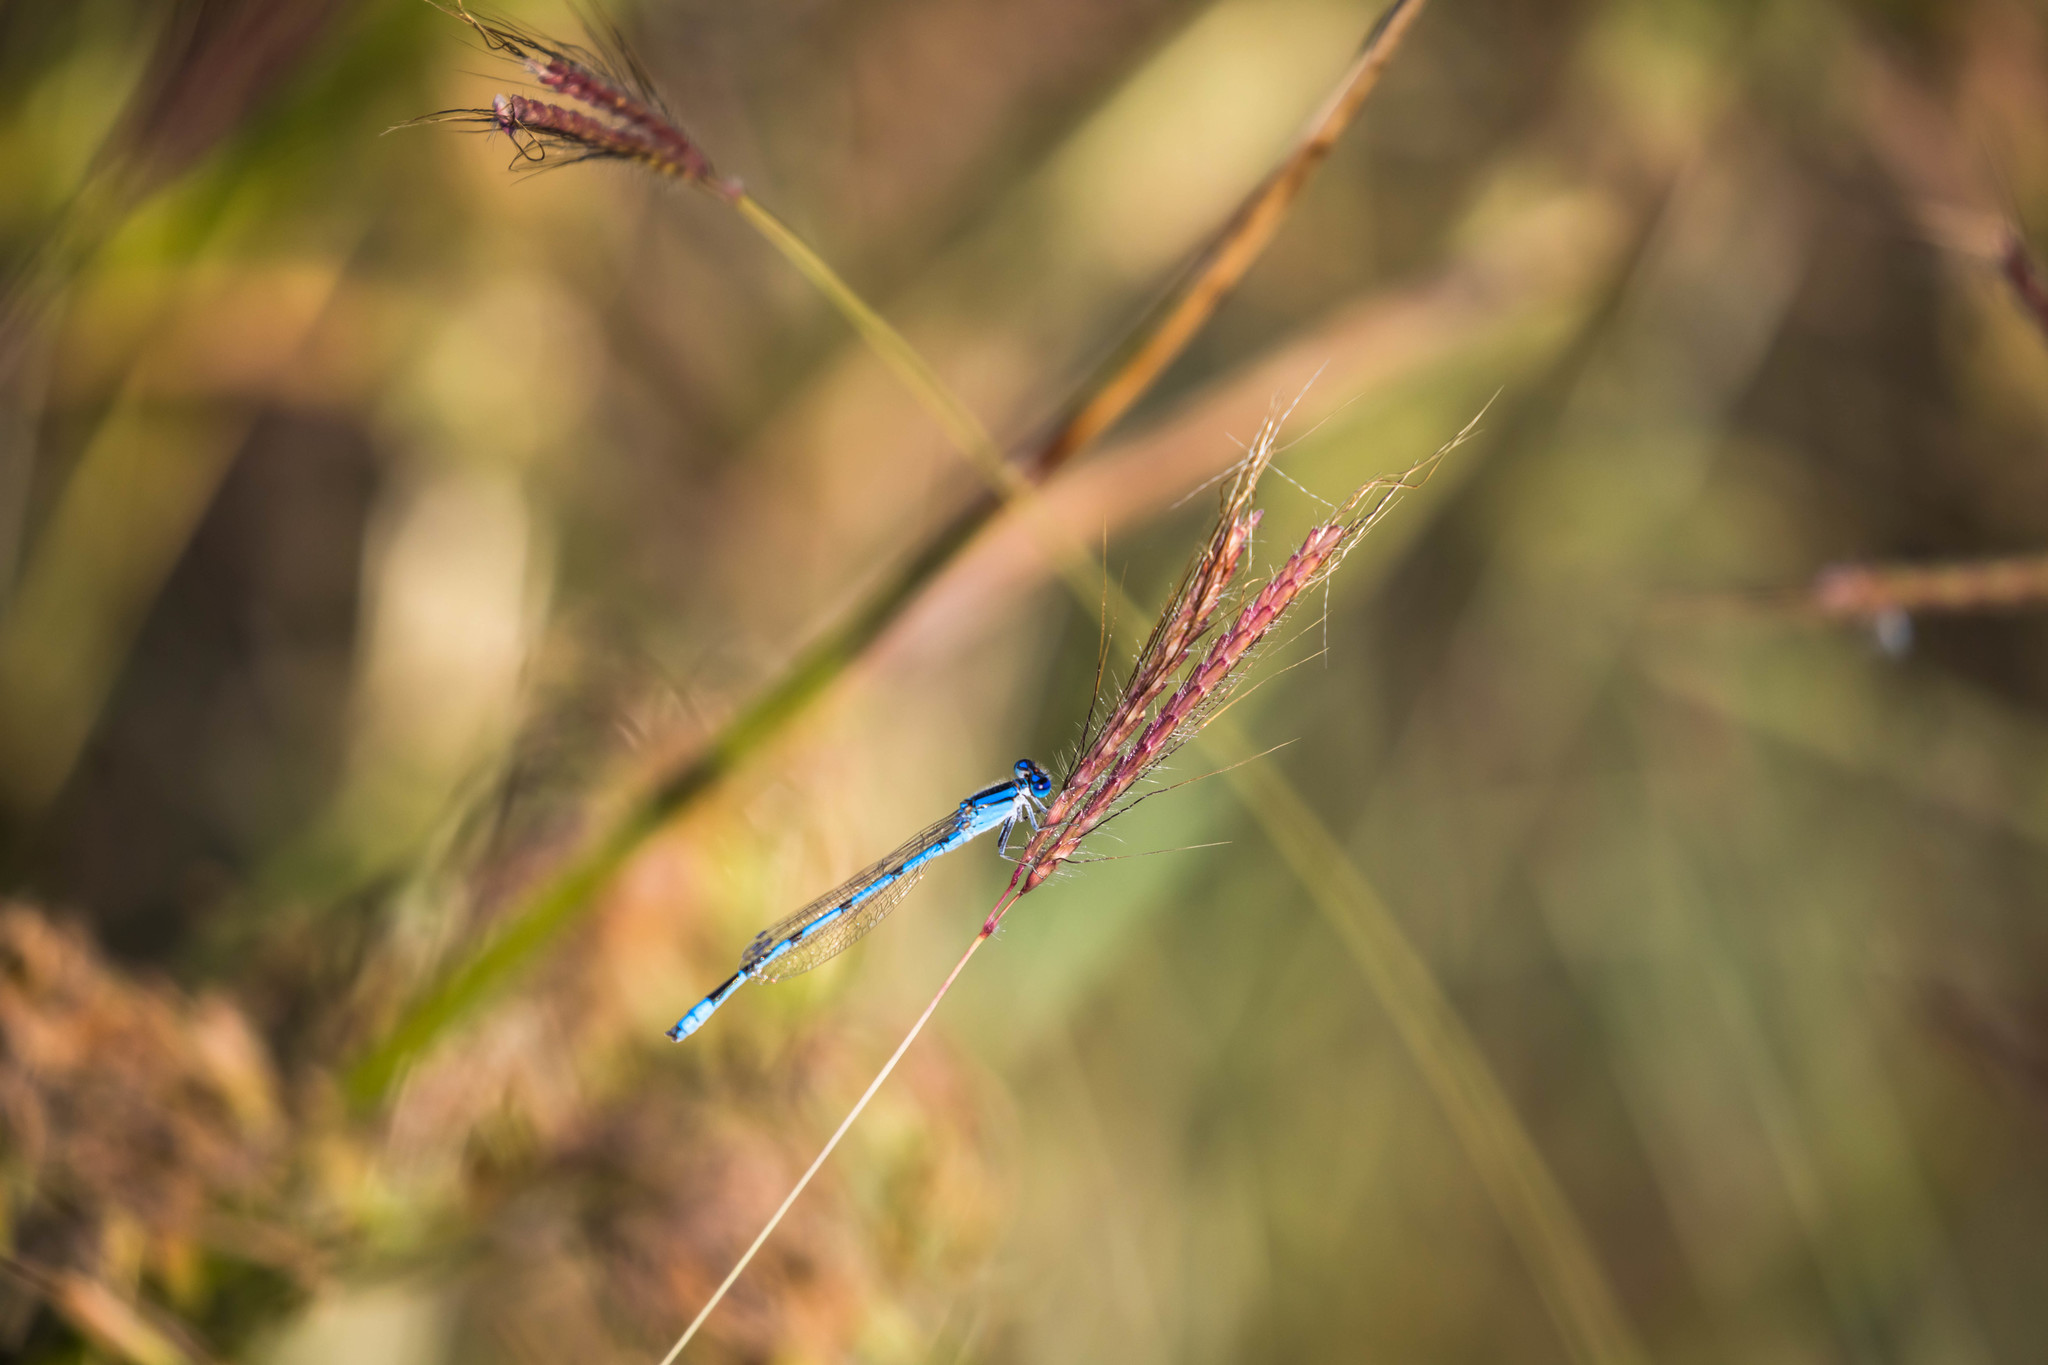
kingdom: Animalia
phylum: Arthropoda
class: Insecta
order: Odonata
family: Coenagrionidae
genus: Enallagma
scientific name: Enallagma civile
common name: Damselfly
